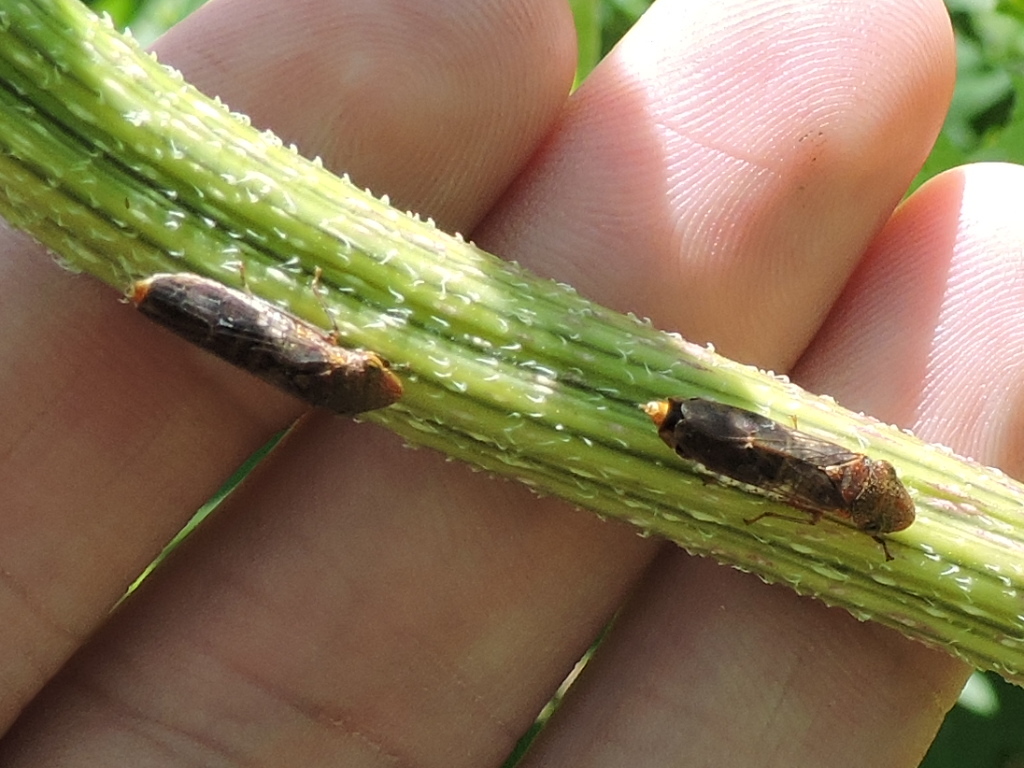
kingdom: Animalia
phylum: Arthropoda
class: Insecta
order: Hemiptera
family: Cicadellidae
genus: Homalodisca
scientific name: Homalodisca vitripennis
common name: Glassy-winged sharpshooter
